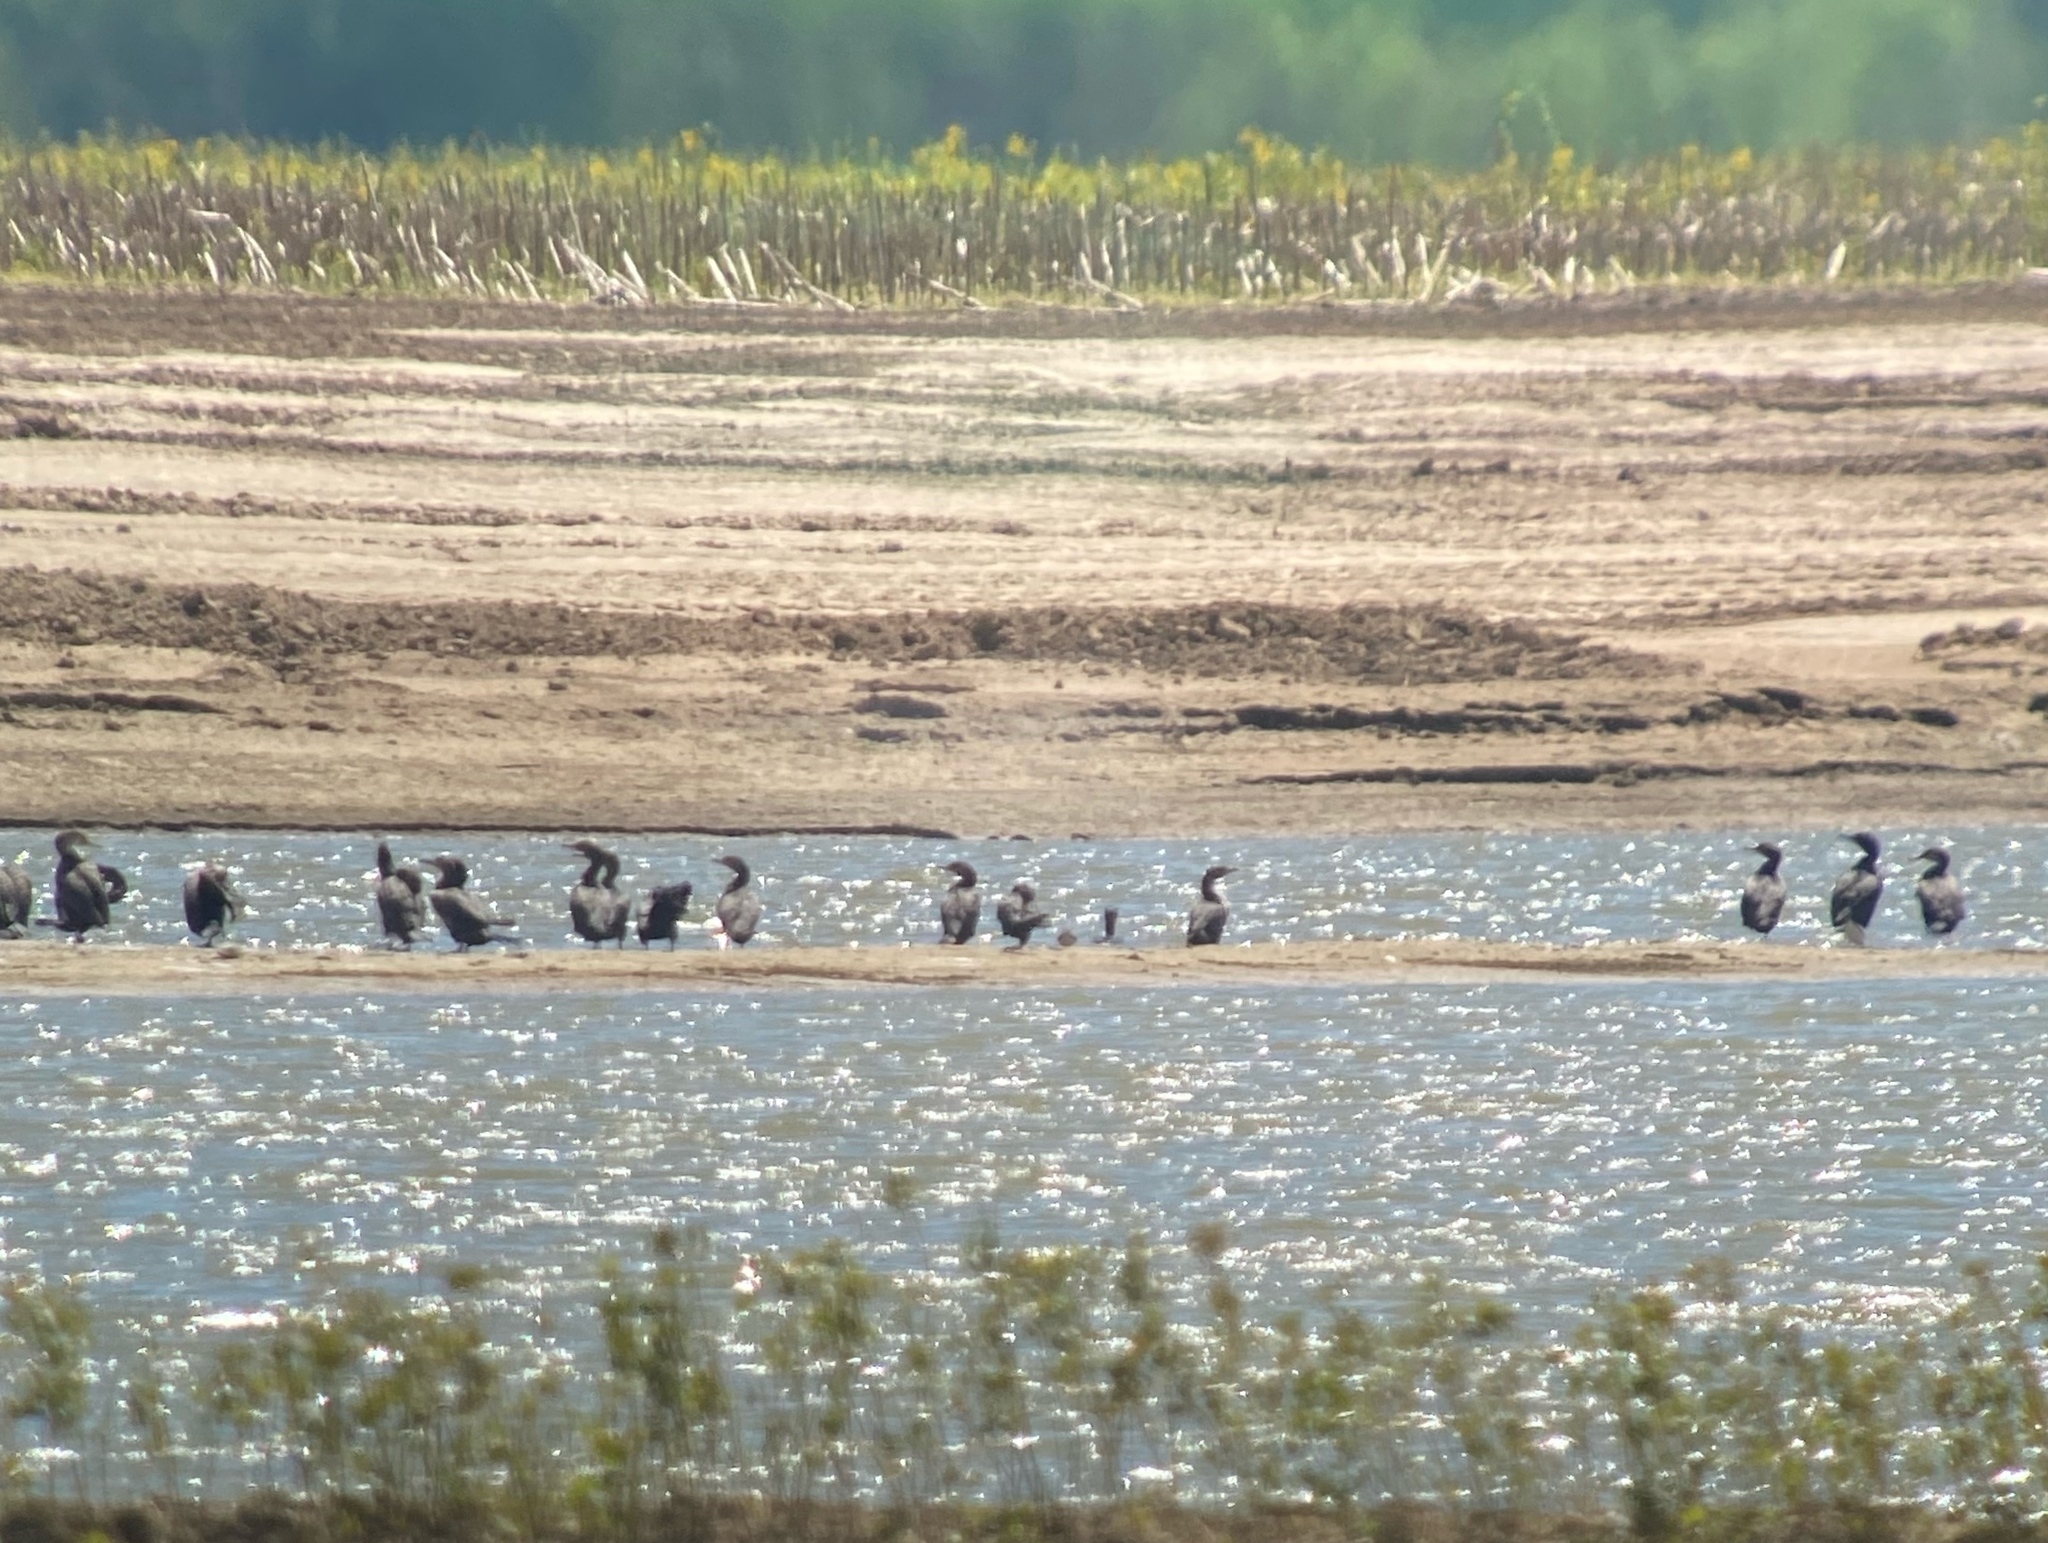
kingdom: Animalia
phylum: Chordata
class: Aves
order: Suliformes
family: Phalacrocoracidae
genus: Phalacrocorax
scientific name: Phalacrocorax auritus
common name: Double-crested cormorant
